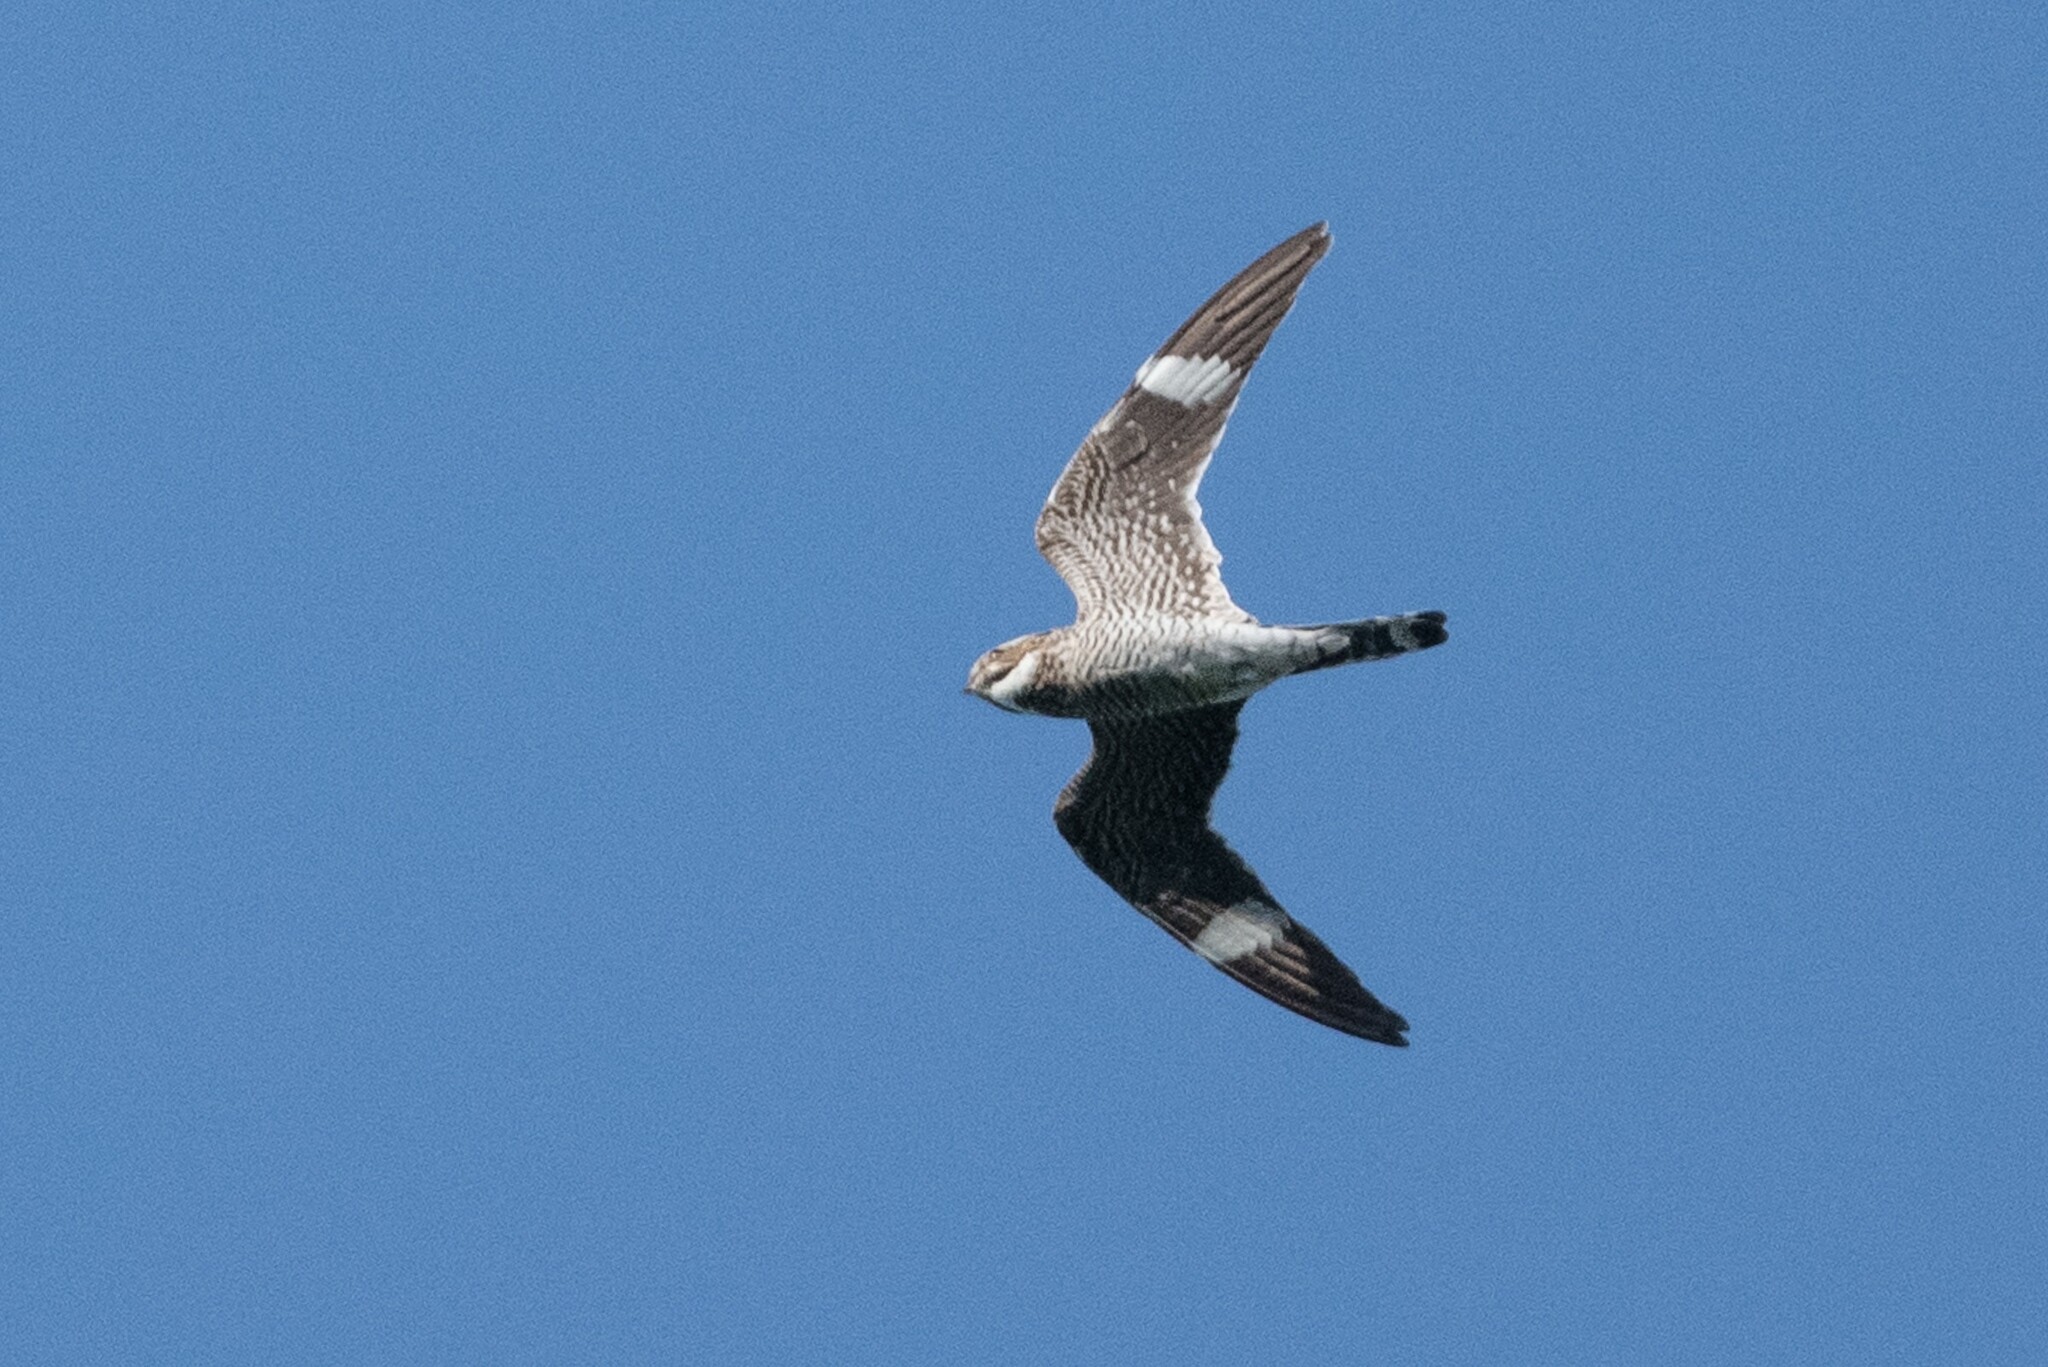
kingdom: Animalia
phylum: Chordata
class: Aves
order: Caprimulgiformes
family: Caprimulgidae
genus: Chordeiles
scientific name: Chordeiles minor
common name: Common nighthawk
